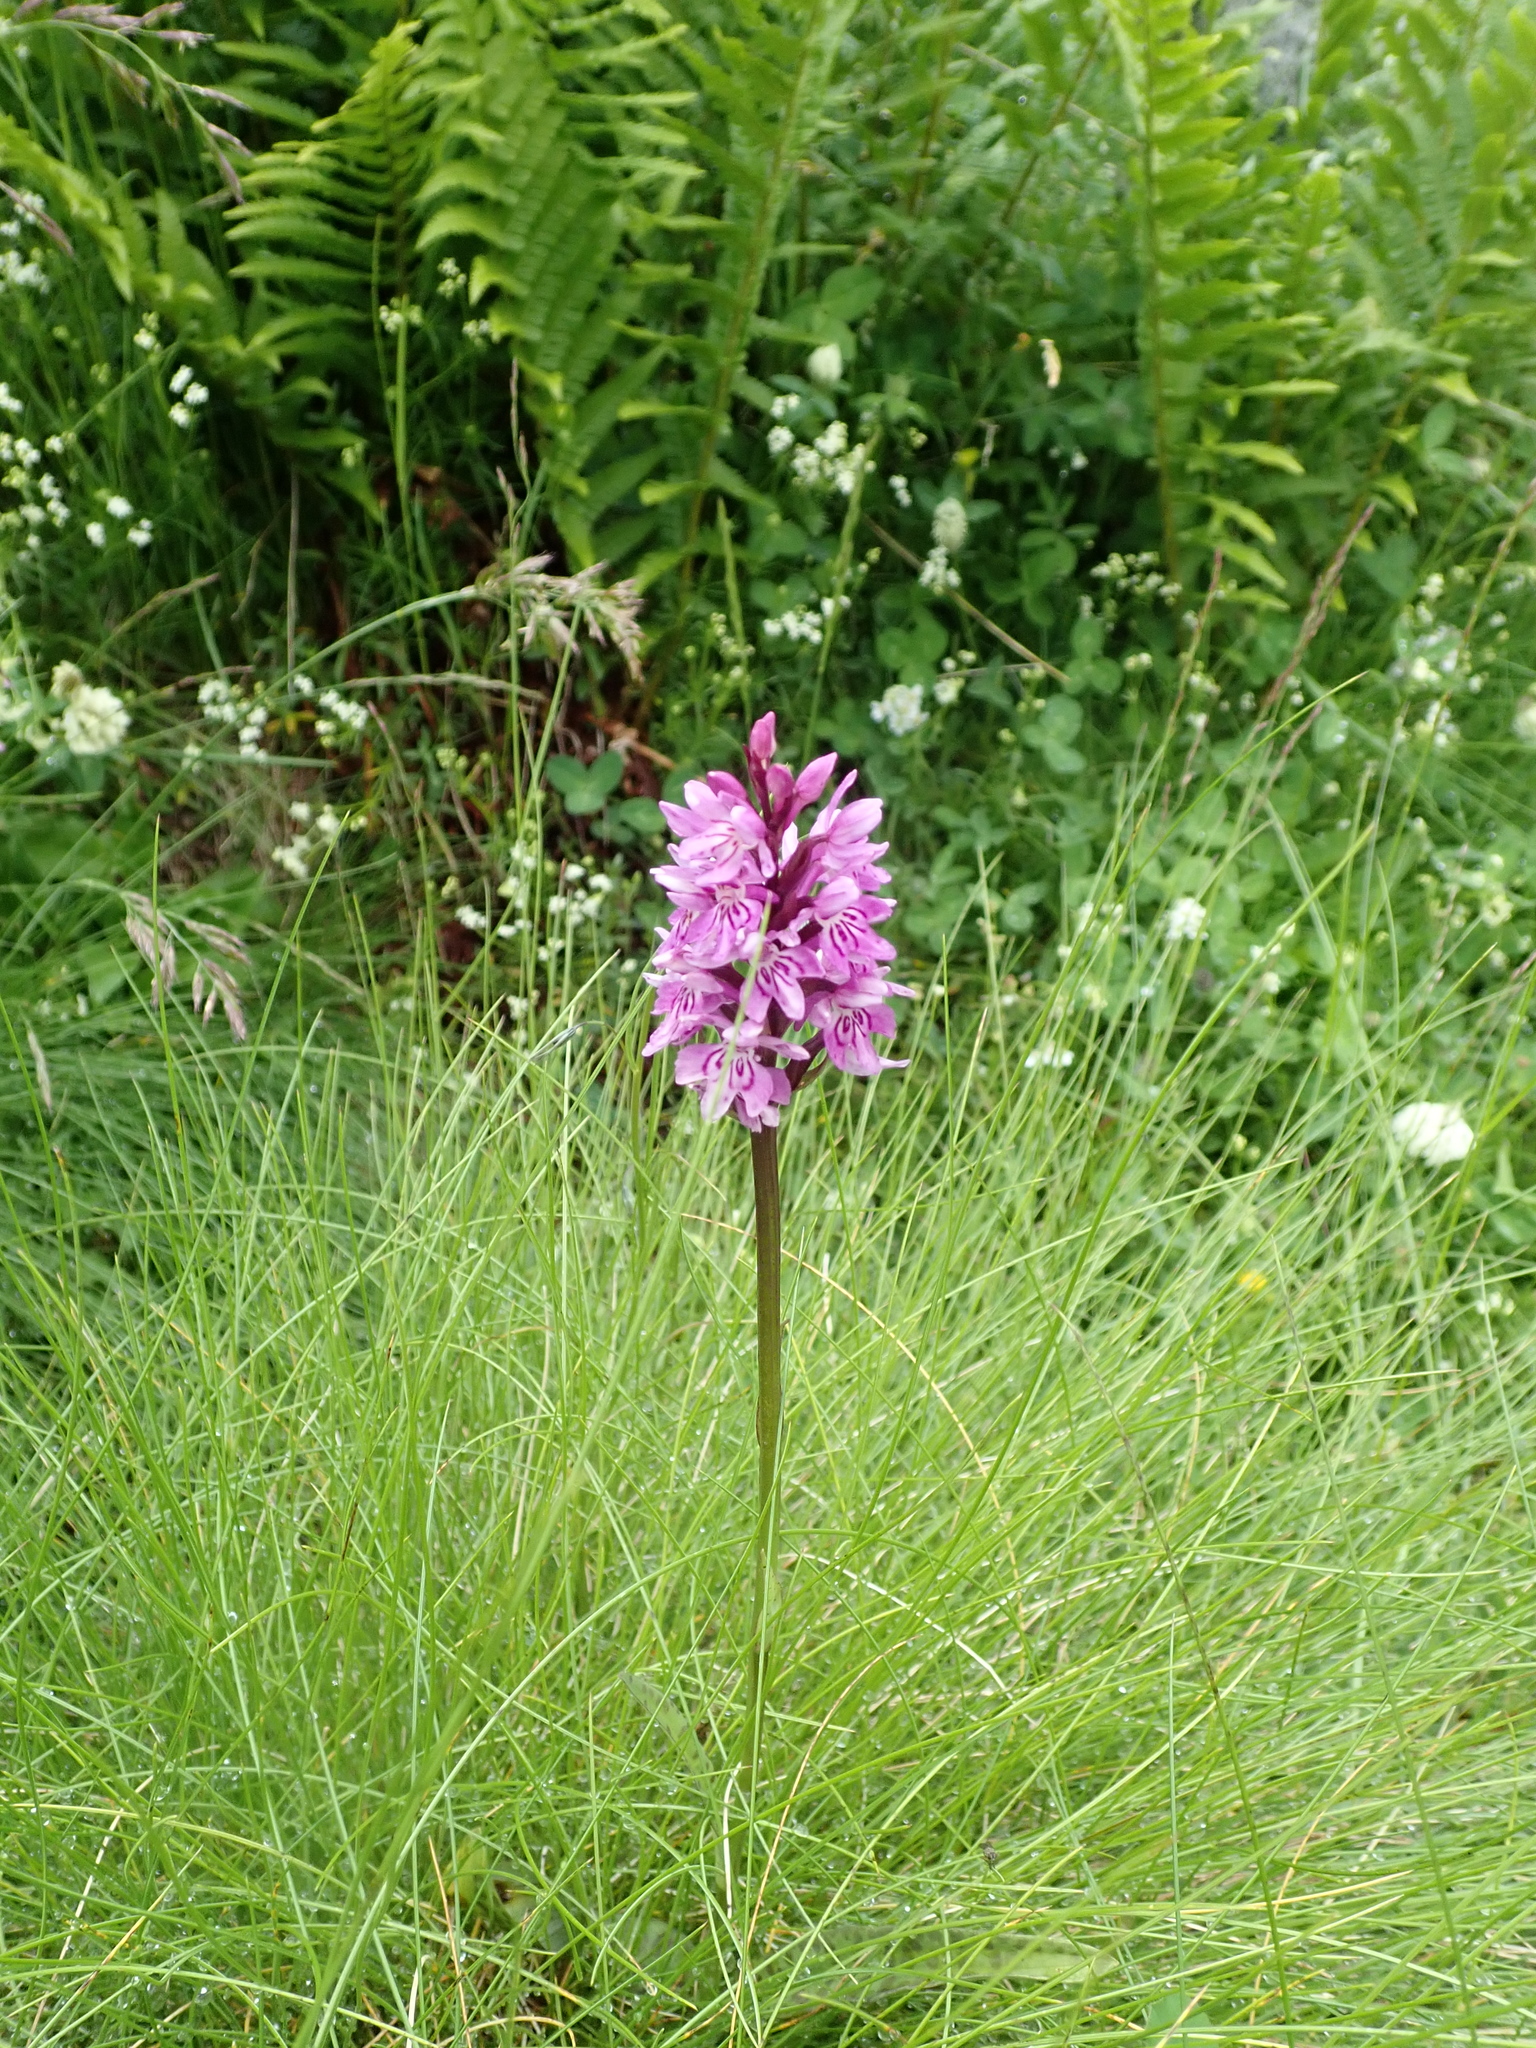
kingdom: Plantae
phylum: Tracheophyta
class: Liliopsida
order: Asparagales
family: Orchidaceae
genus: Dactylorhiza
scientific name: Dactylorhiza maculata
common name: Heath spotted-orchid
